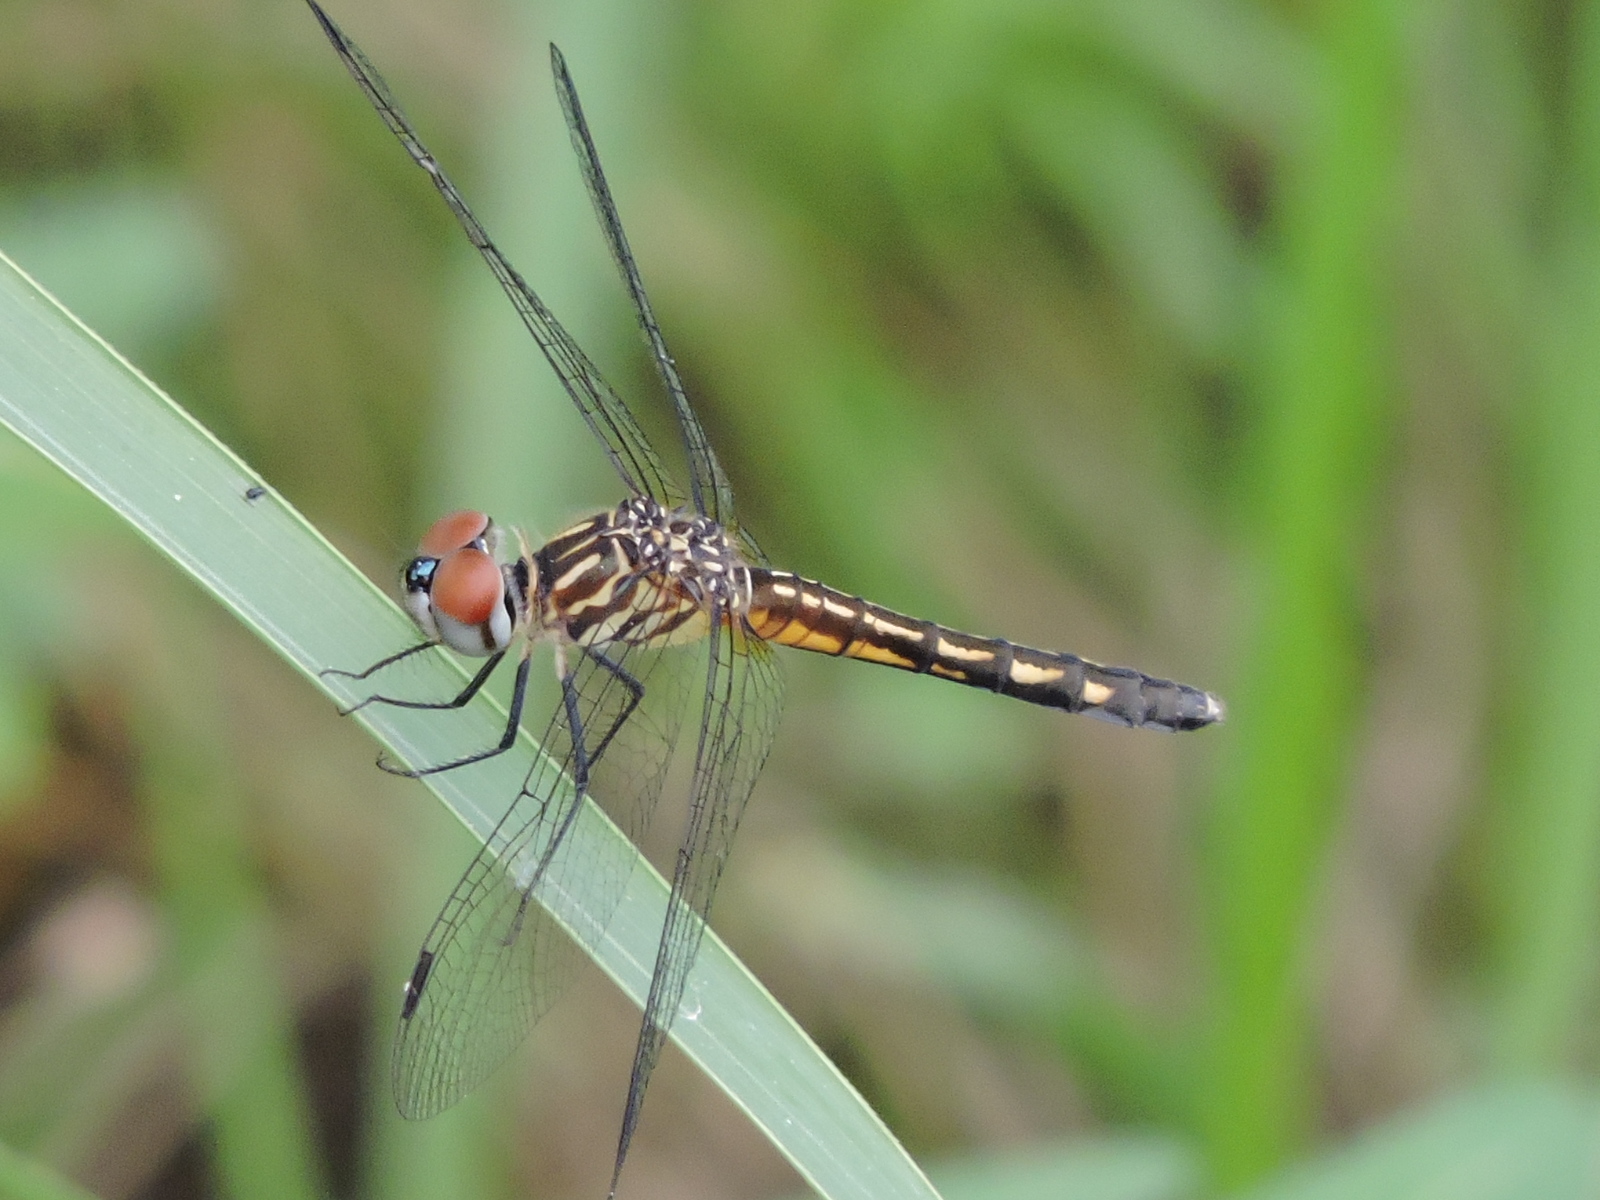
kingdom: Animalia
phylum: Arthropoda
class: Insecta
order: Odonata
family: Libellulidae
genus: Pachydiplax
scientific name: Pachydiplax longipennis
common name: Blue dasher
